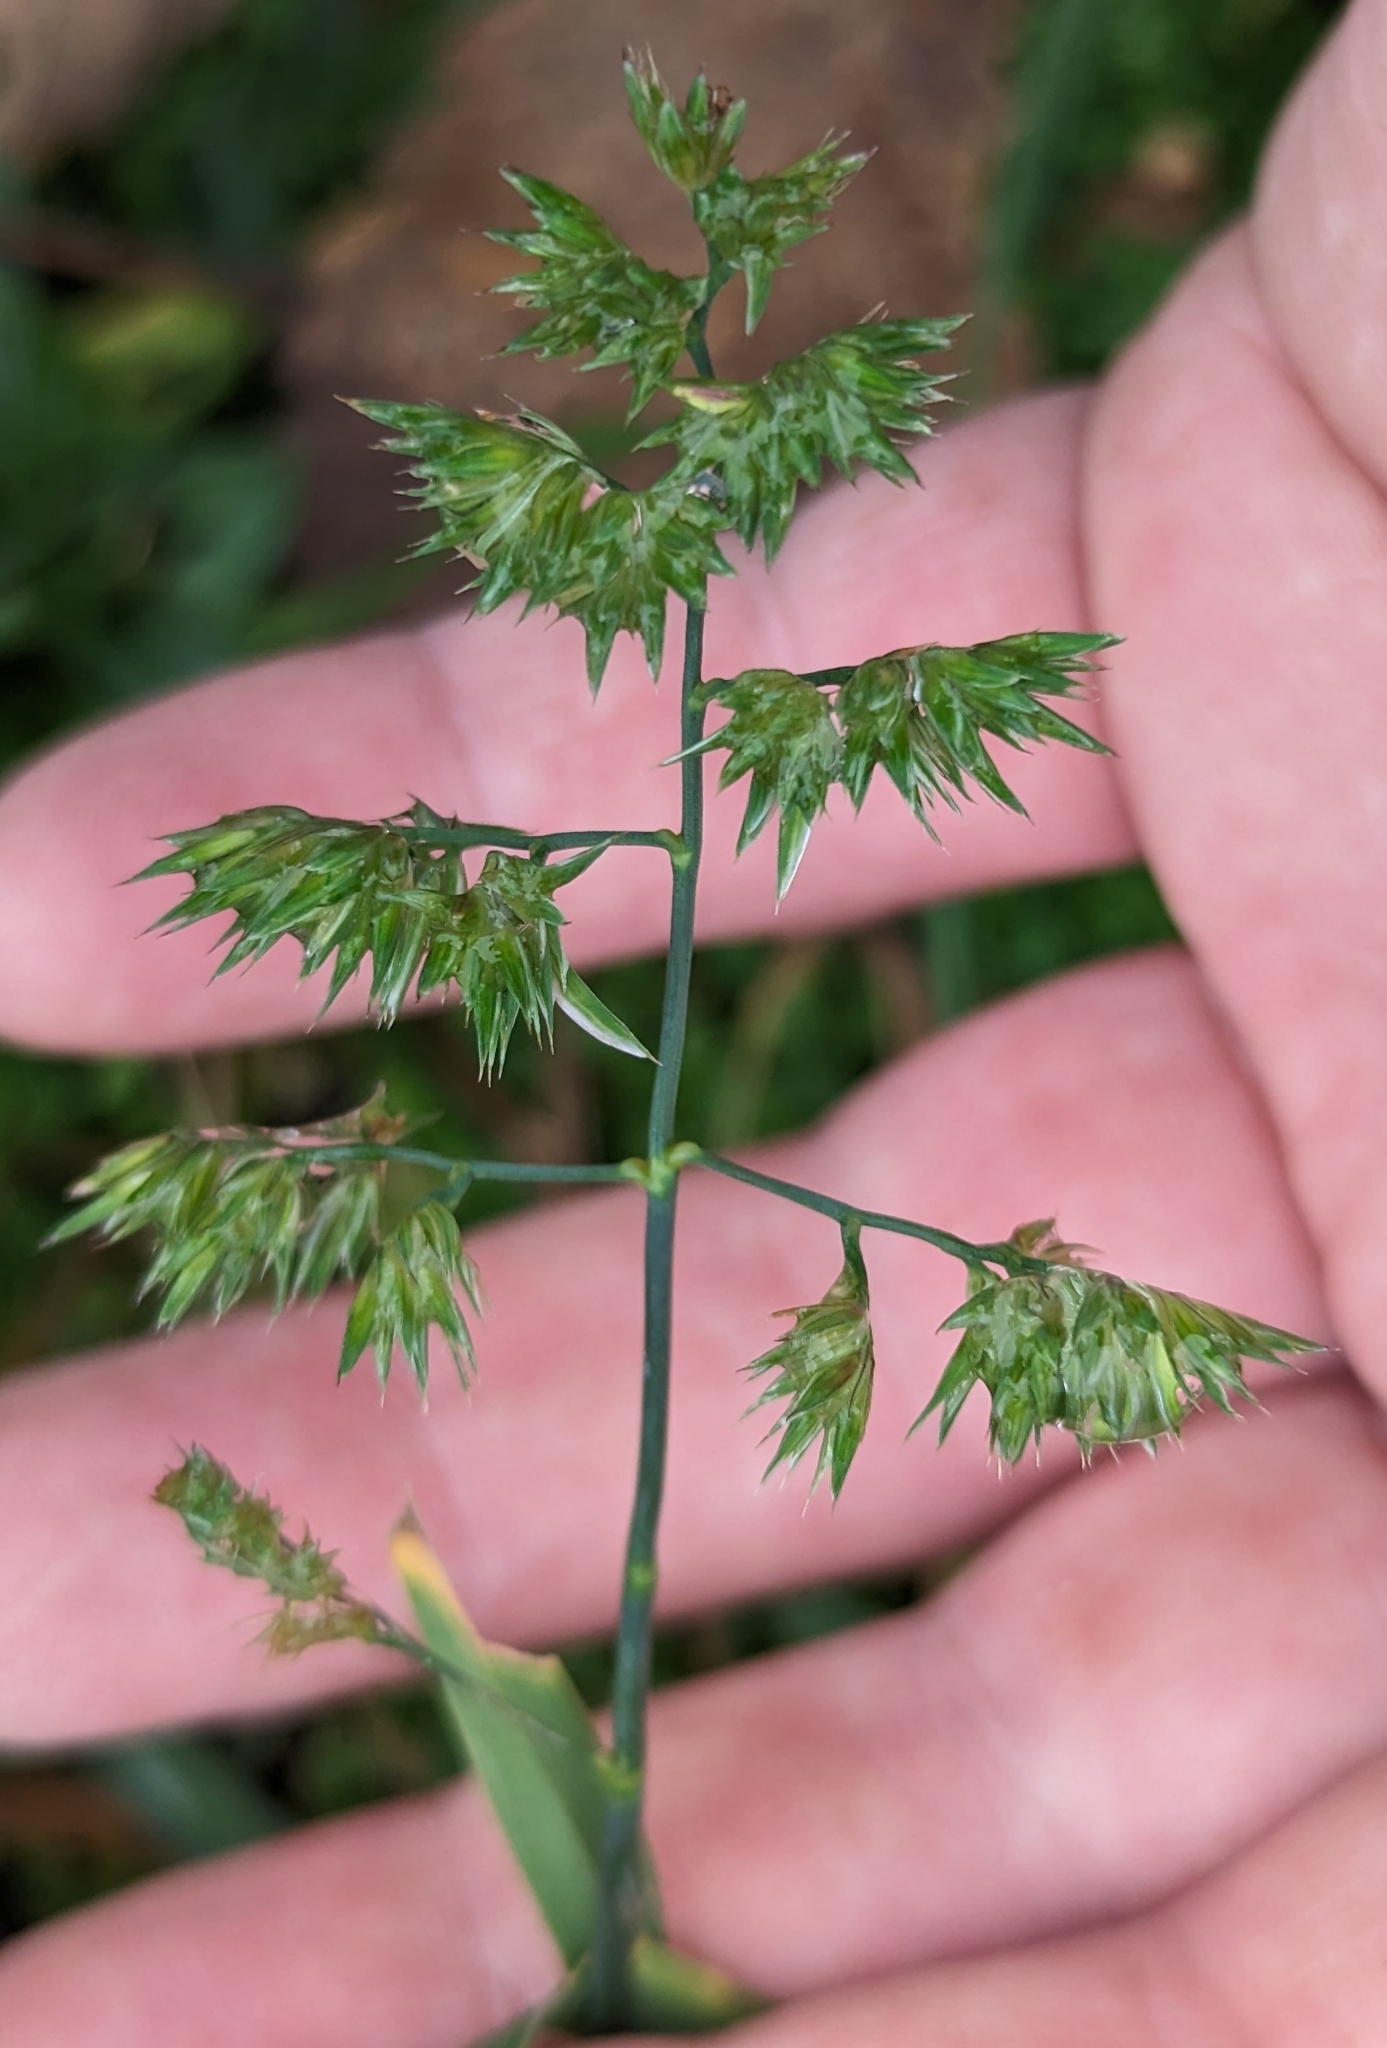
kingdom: Plantae
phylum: Tracheophyta
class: Liliopsida
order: Poales
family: Poaceae
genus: Dactylis
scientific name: Dactylis glomerata
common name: Orchardgrass
